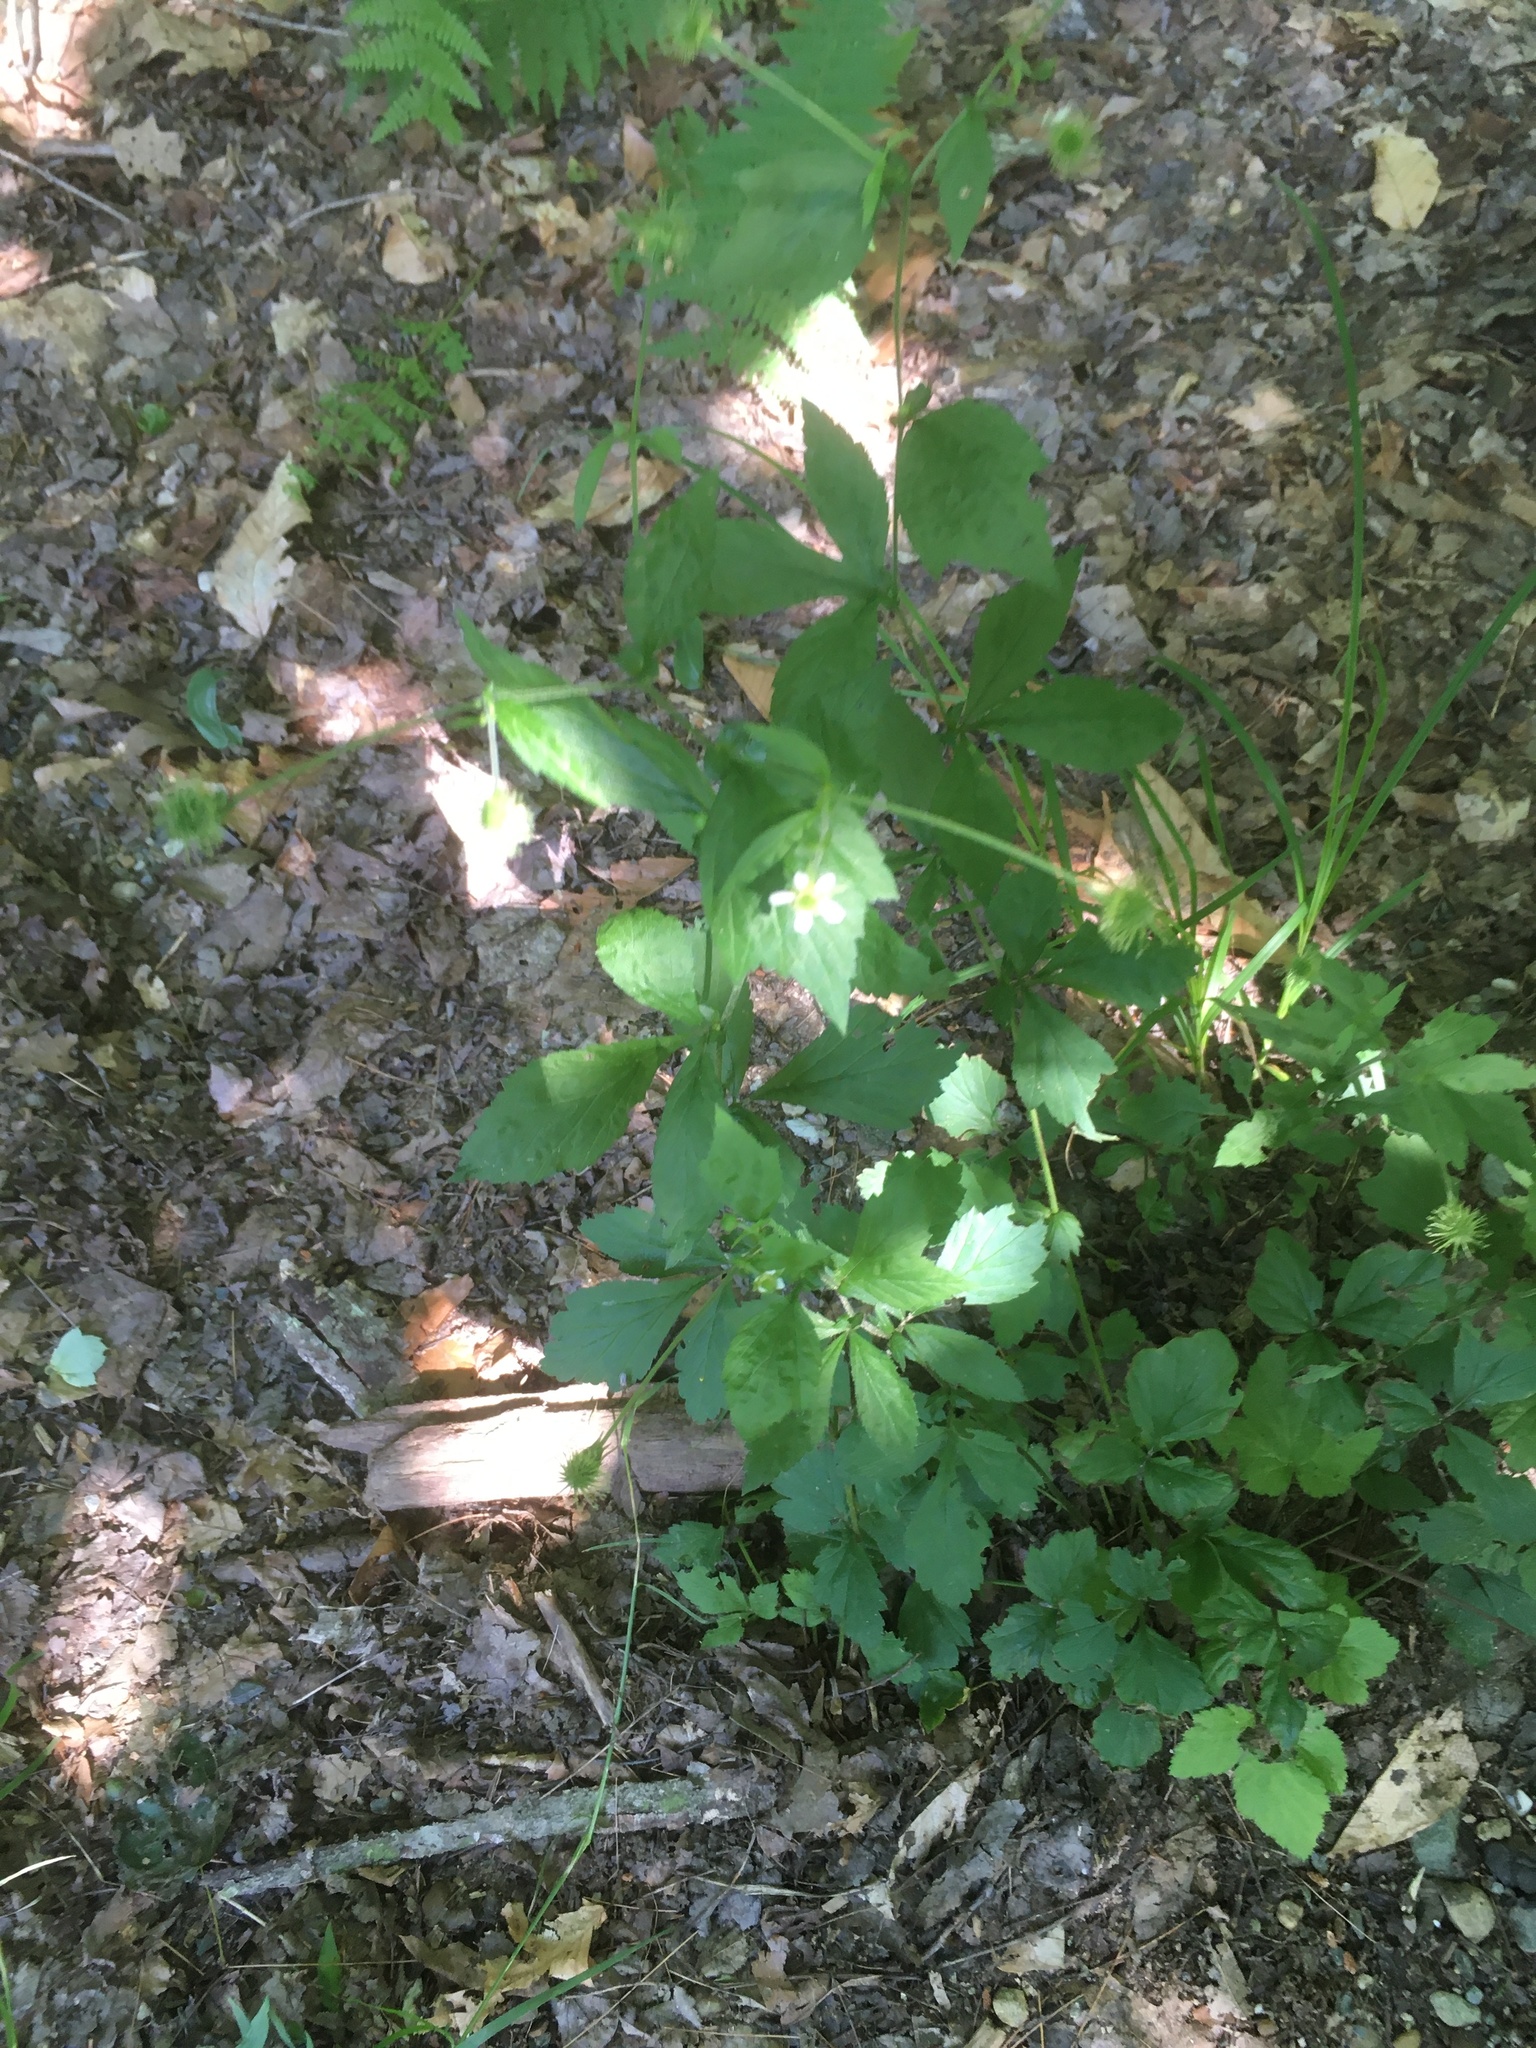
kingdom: Plantae
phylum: Tracheophyta
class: Magnoliopsida
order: Rosales
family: Rosaceae
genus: Geum
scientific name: Geum canadense
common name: White avens
